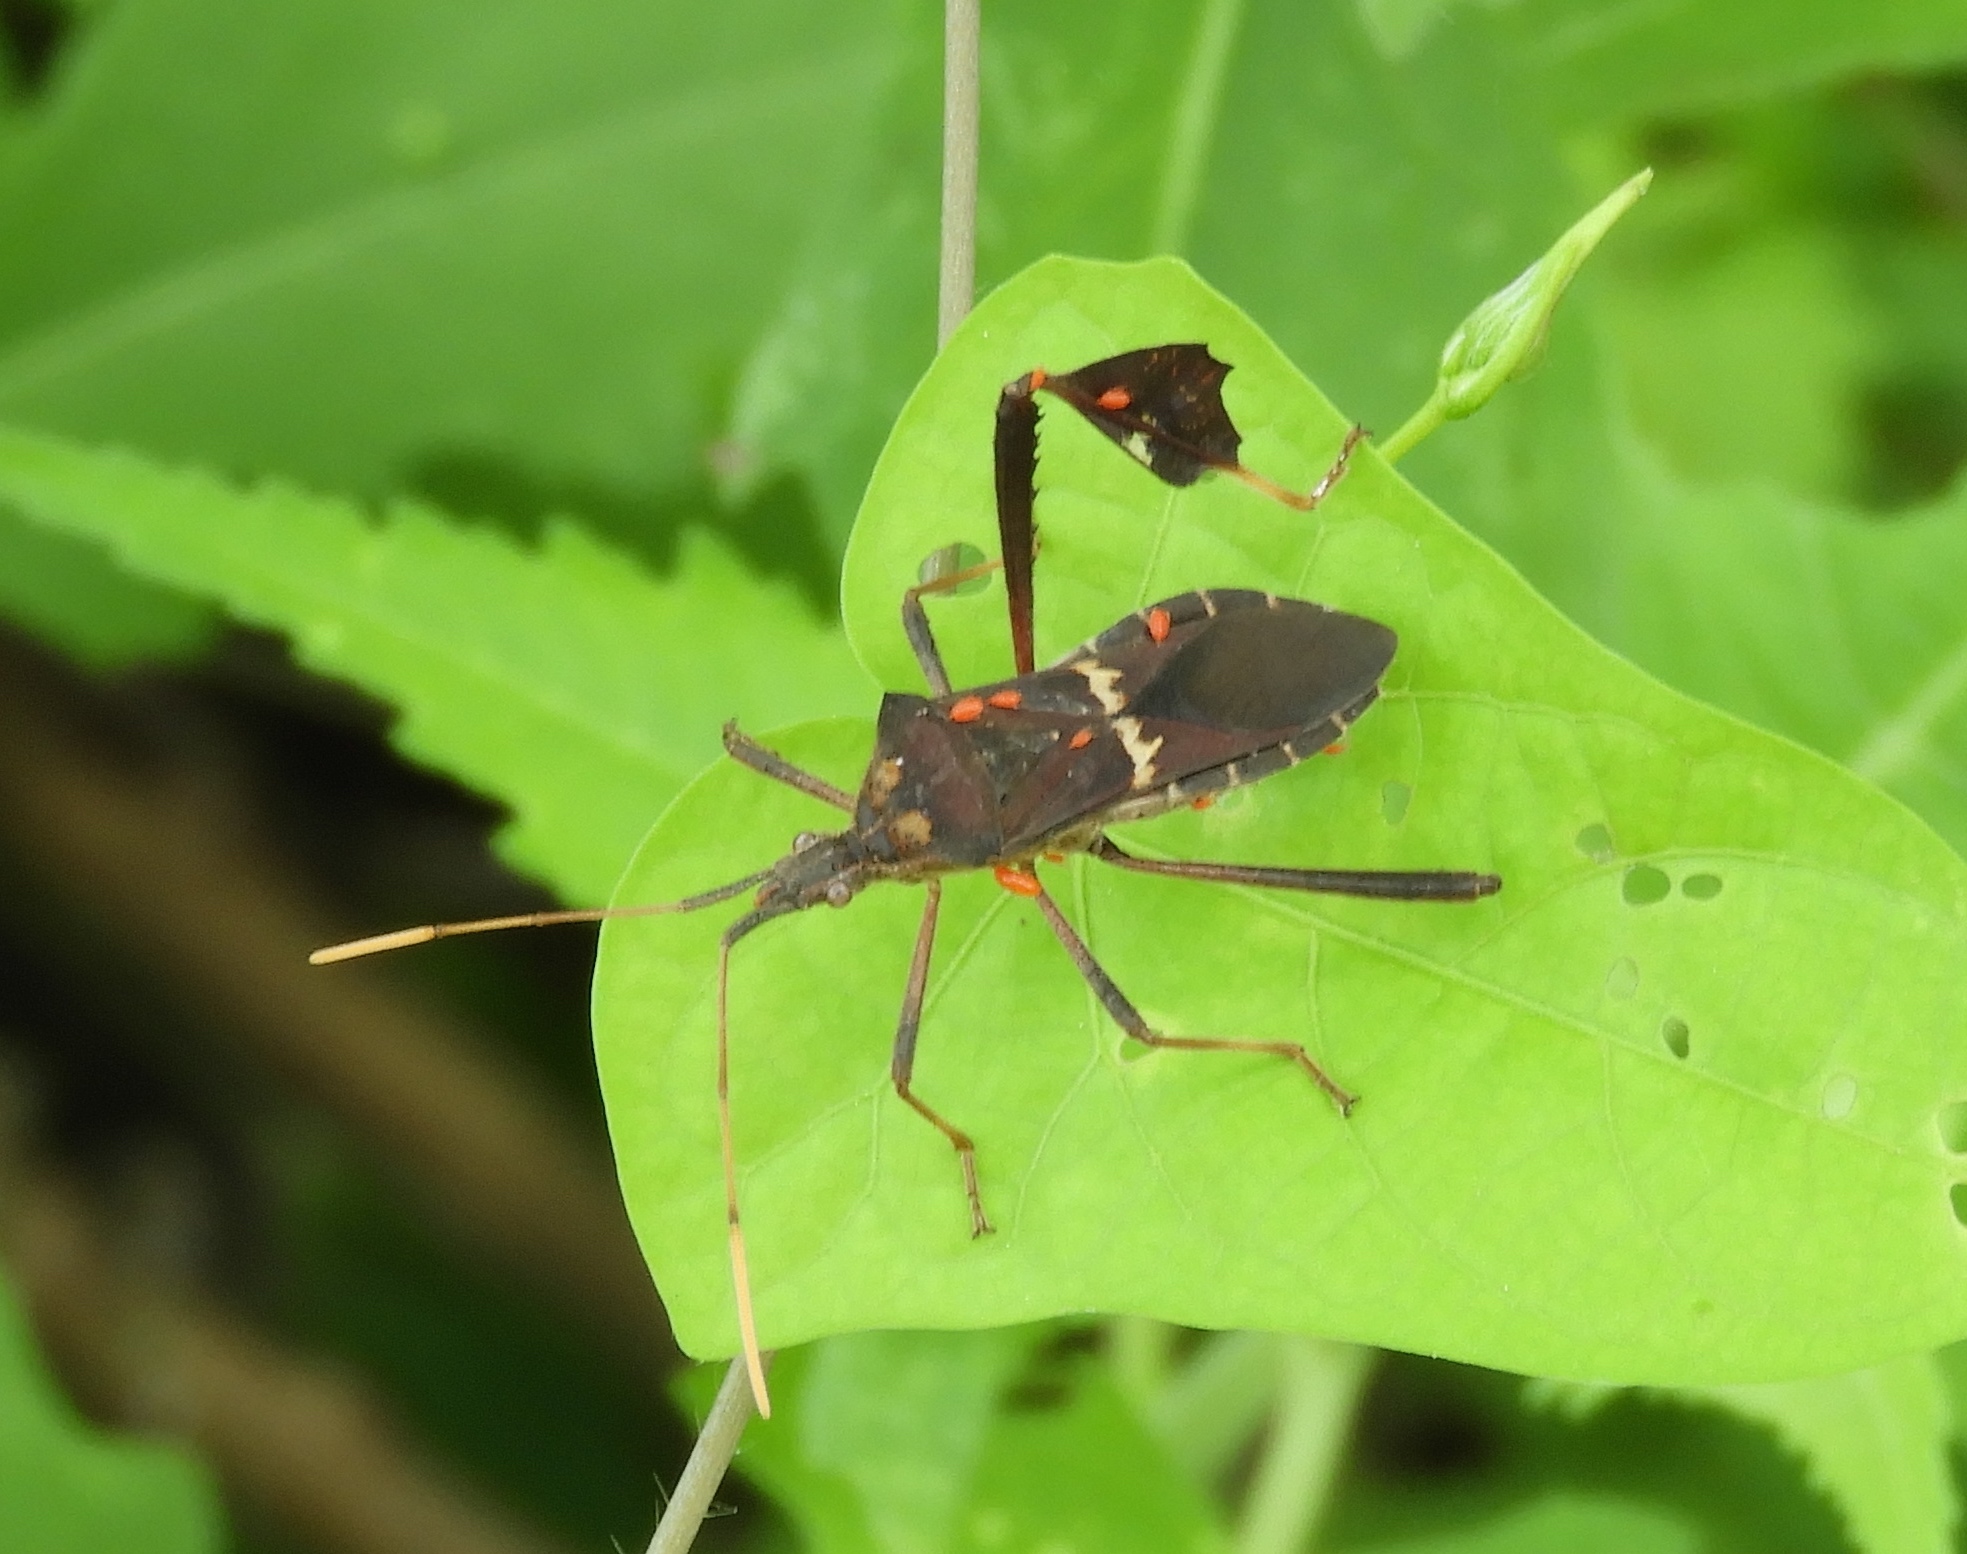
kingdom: Animalia
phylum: Arthropoda
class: Insecta
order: Hemiptera
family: Coreidae
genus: Leptoglossus
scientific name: Leptoglossus zonatus
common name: Large-legged bug
